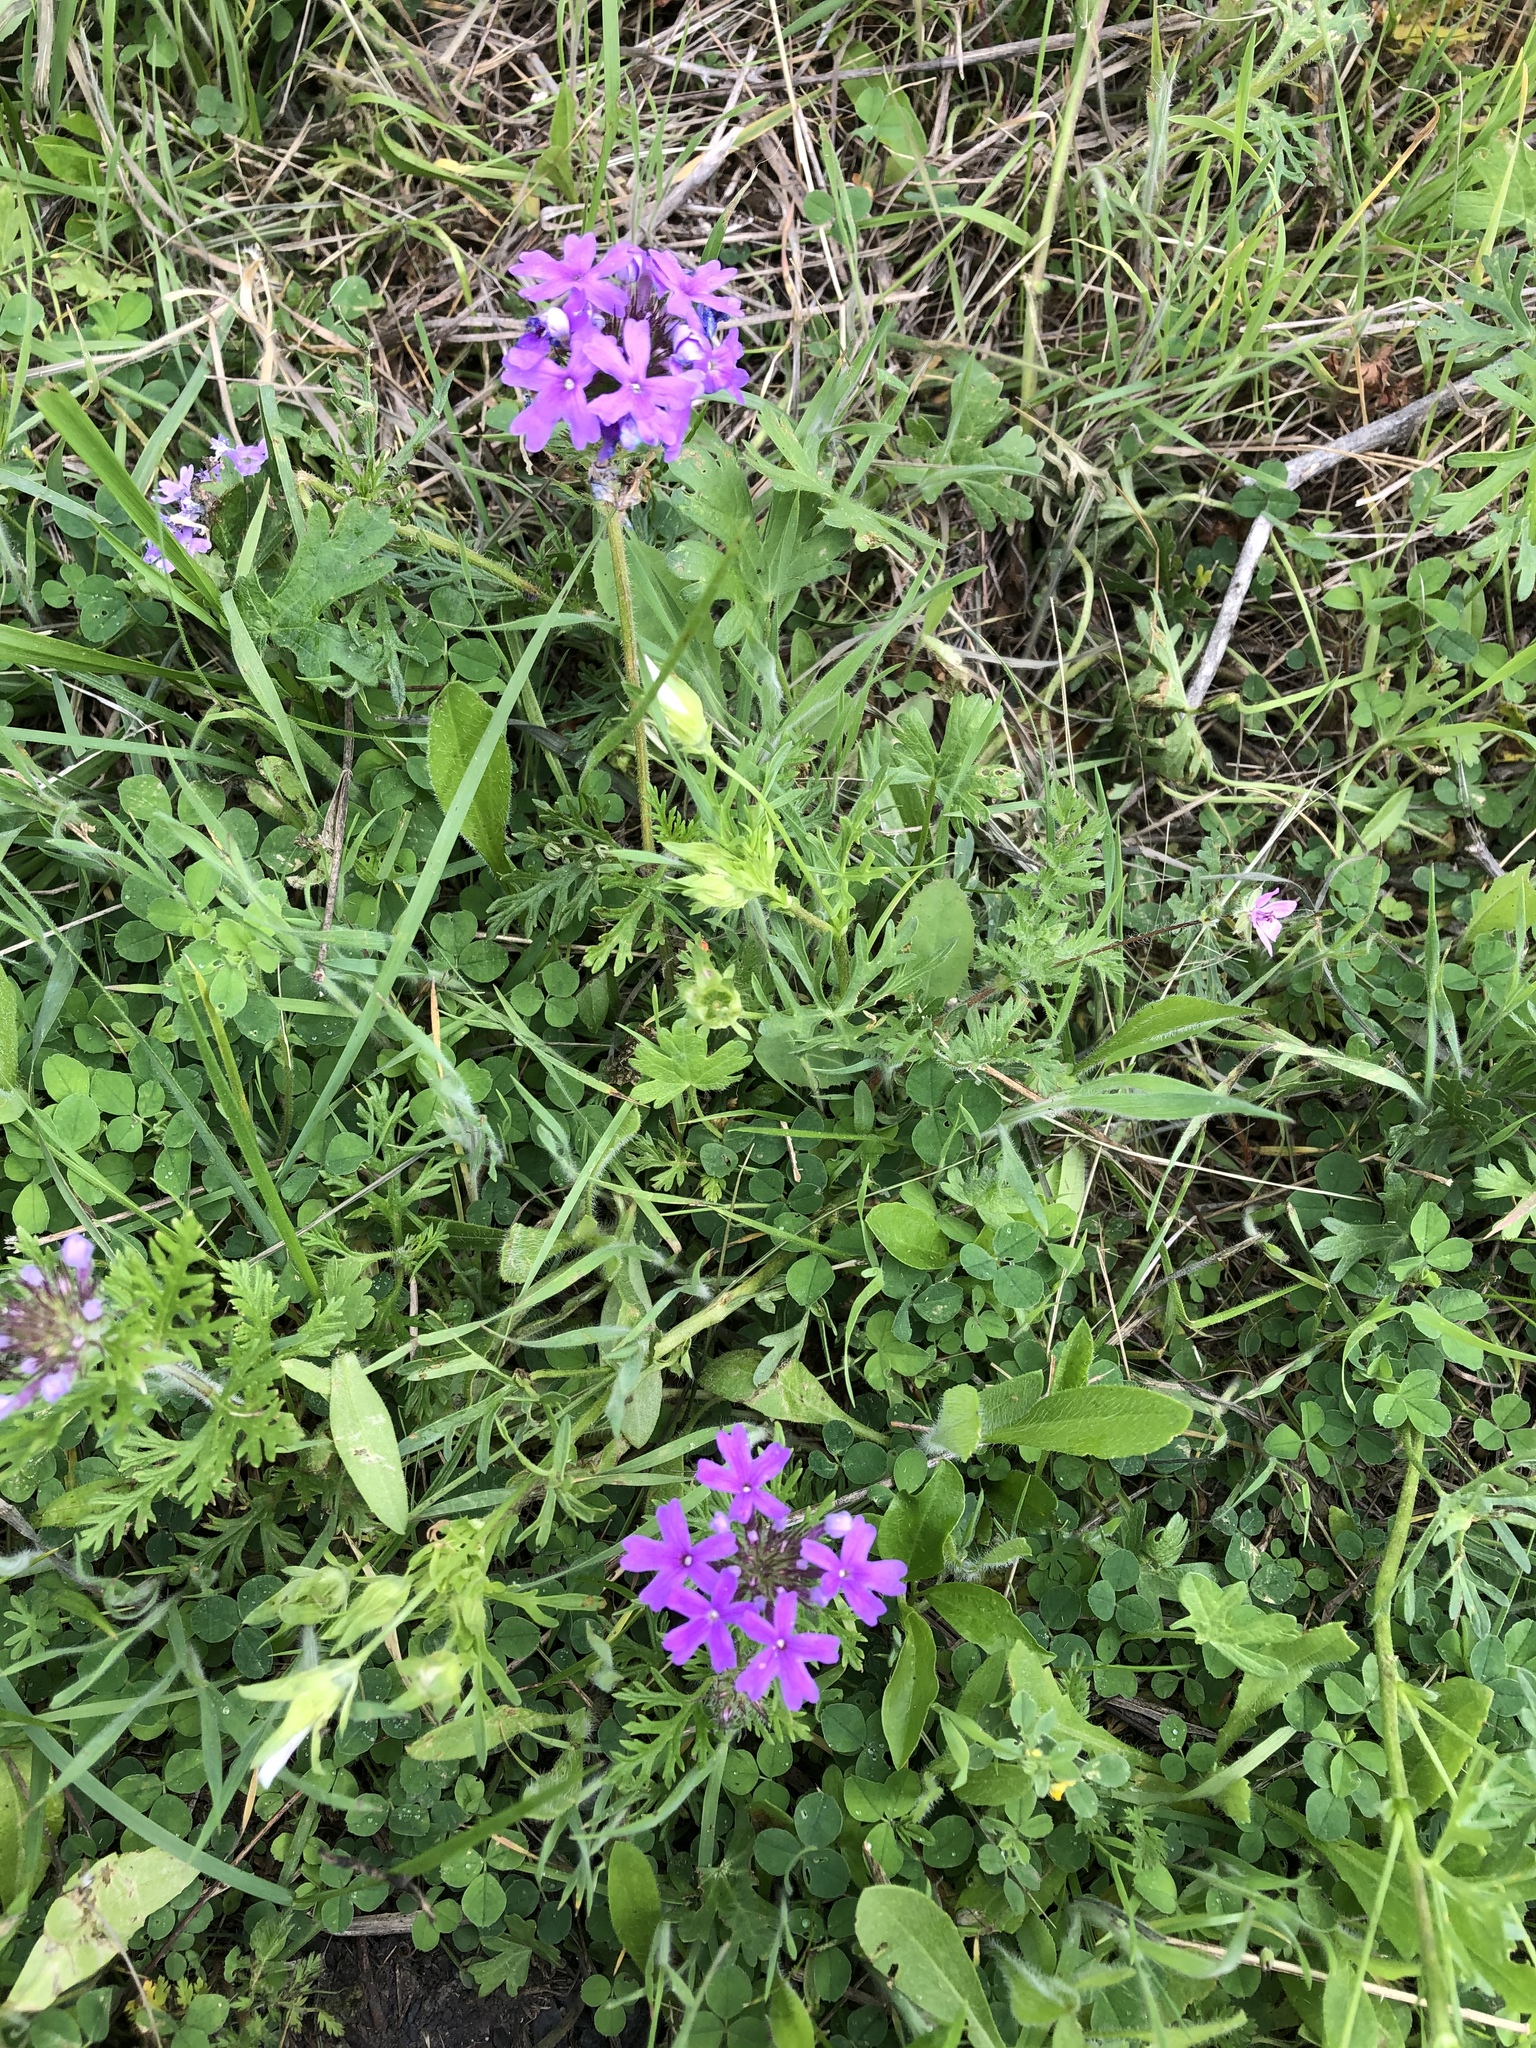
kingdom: Plantae
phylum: Tracheophyta
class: Magnoliopsida
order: Lamiales
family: Verbenaceae
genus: Verbena
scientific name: Verbena bipinnatifida
